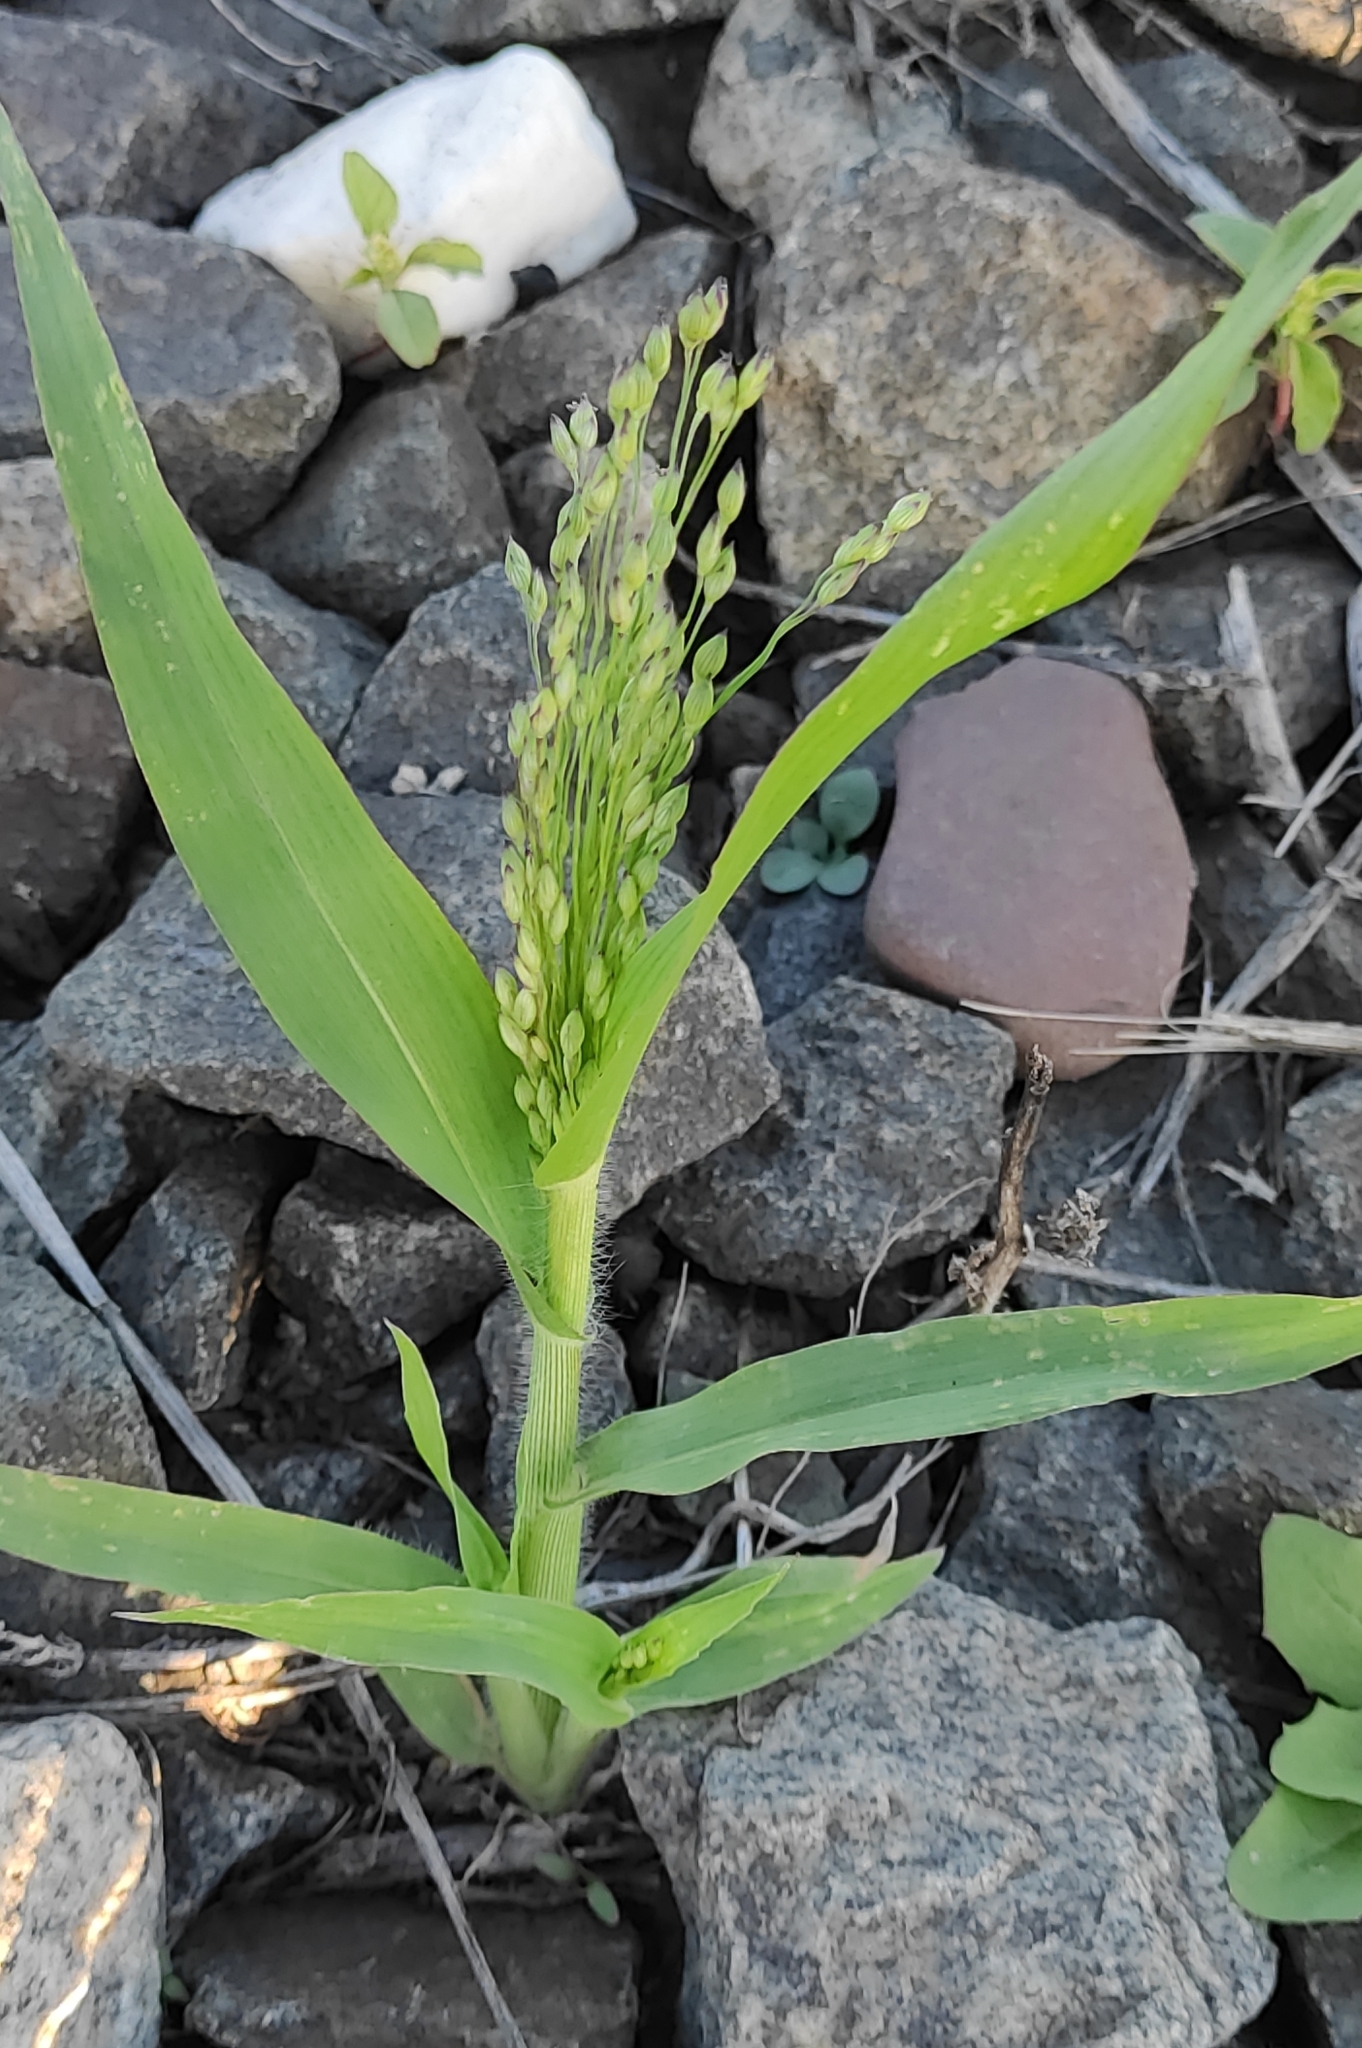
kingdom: Plantae
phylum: Tracheophyta
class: Liliopsida
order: Poales
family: Poaceae
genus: Panicum
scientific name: Panicum miliaceum
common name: Common millet
